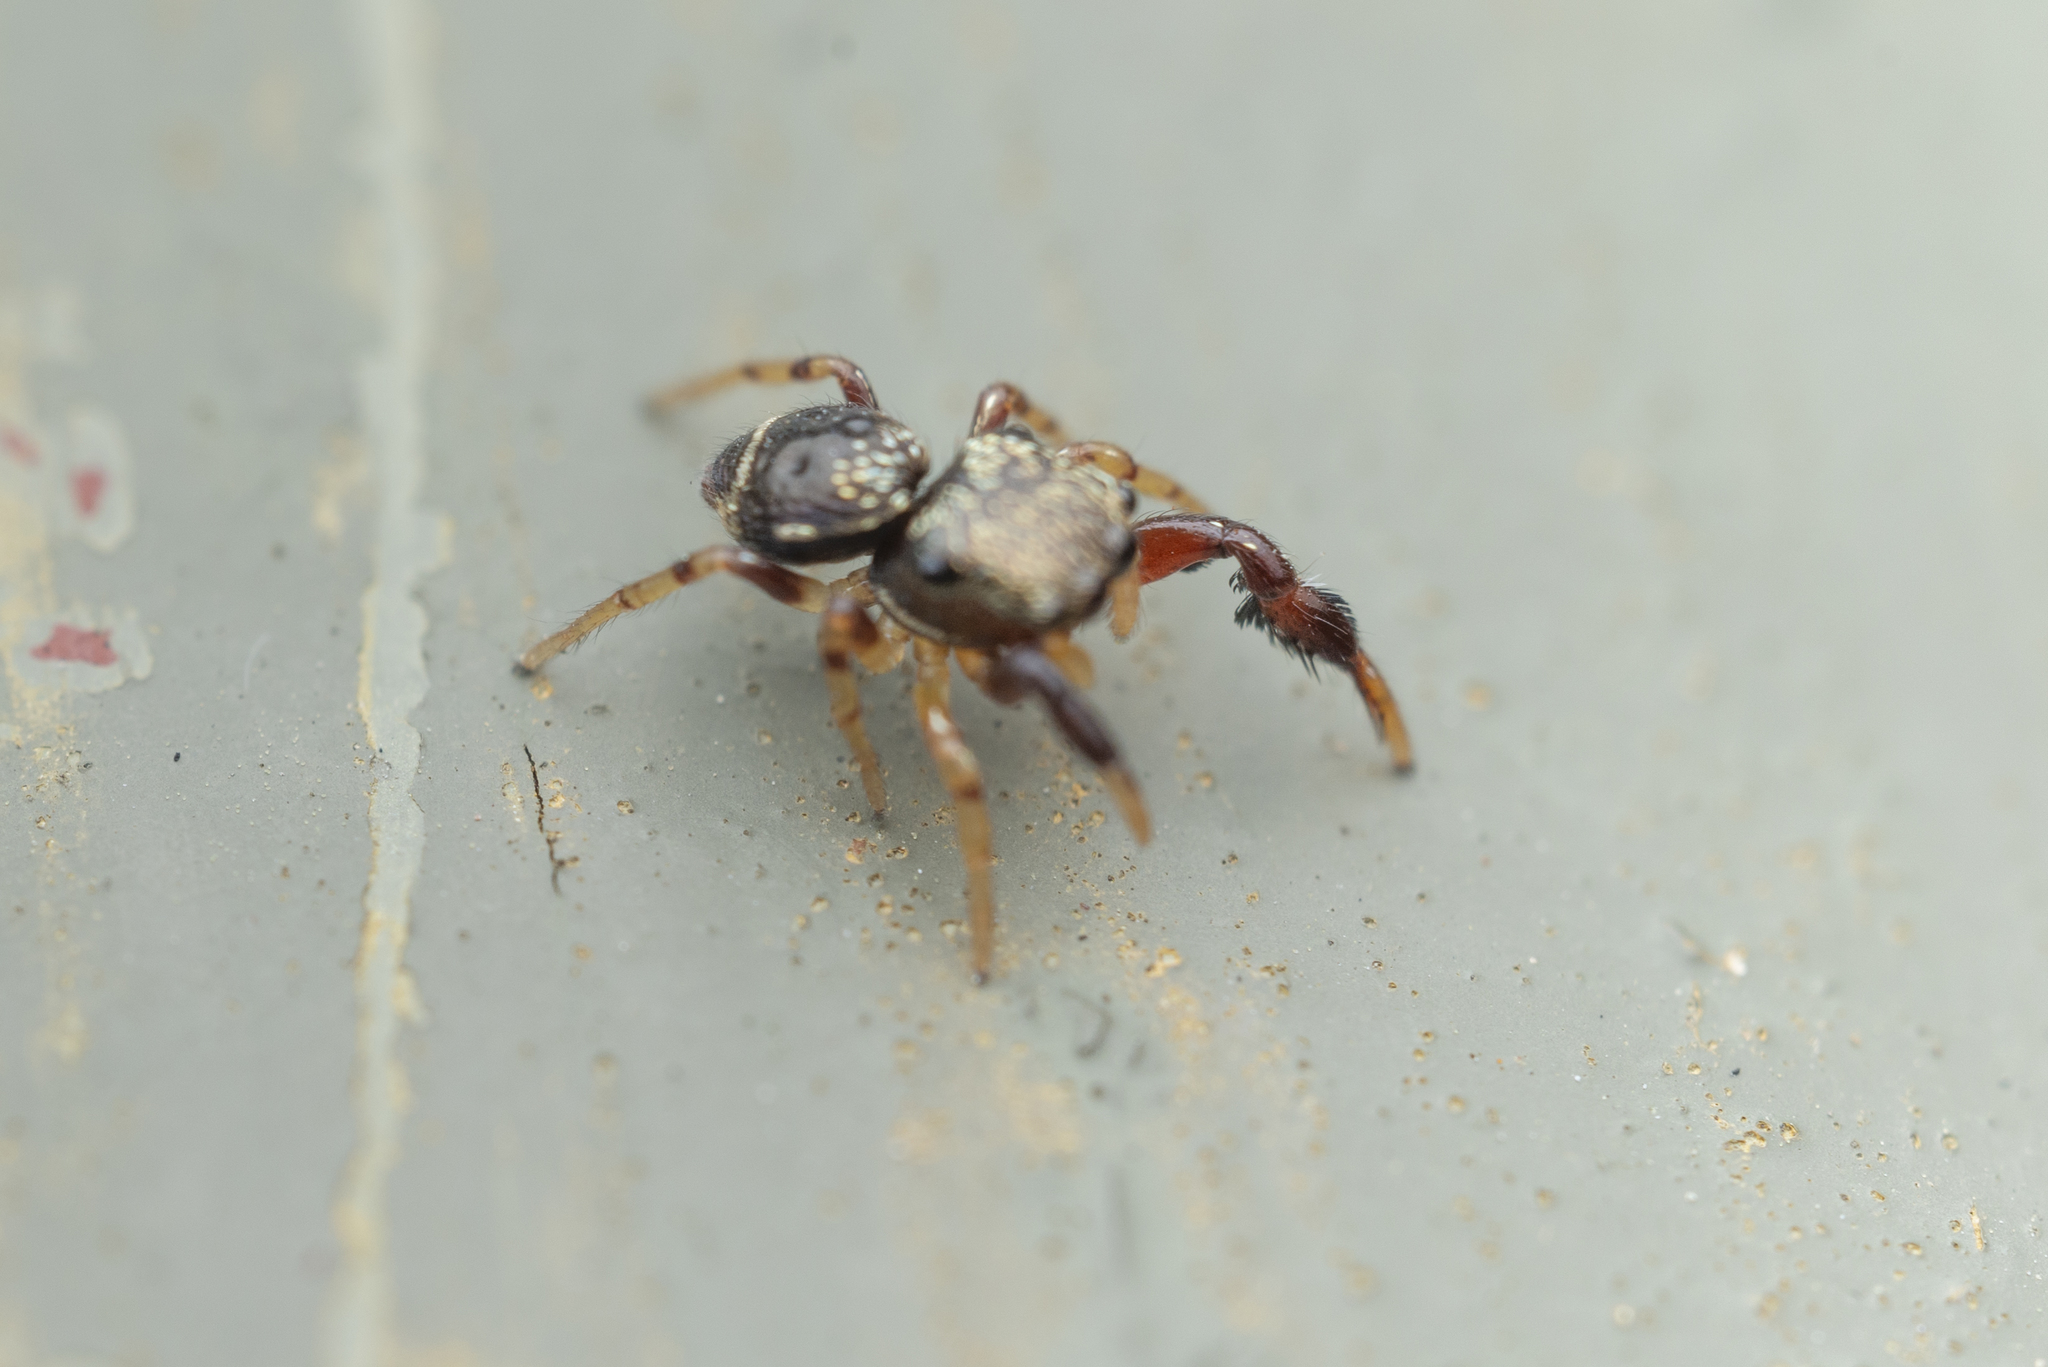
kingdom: Animalia
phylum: Arthropoda
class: Arachnida
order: Araneae
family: Salticidae
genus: Harmochirus
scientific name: Harmochirus insulanus
